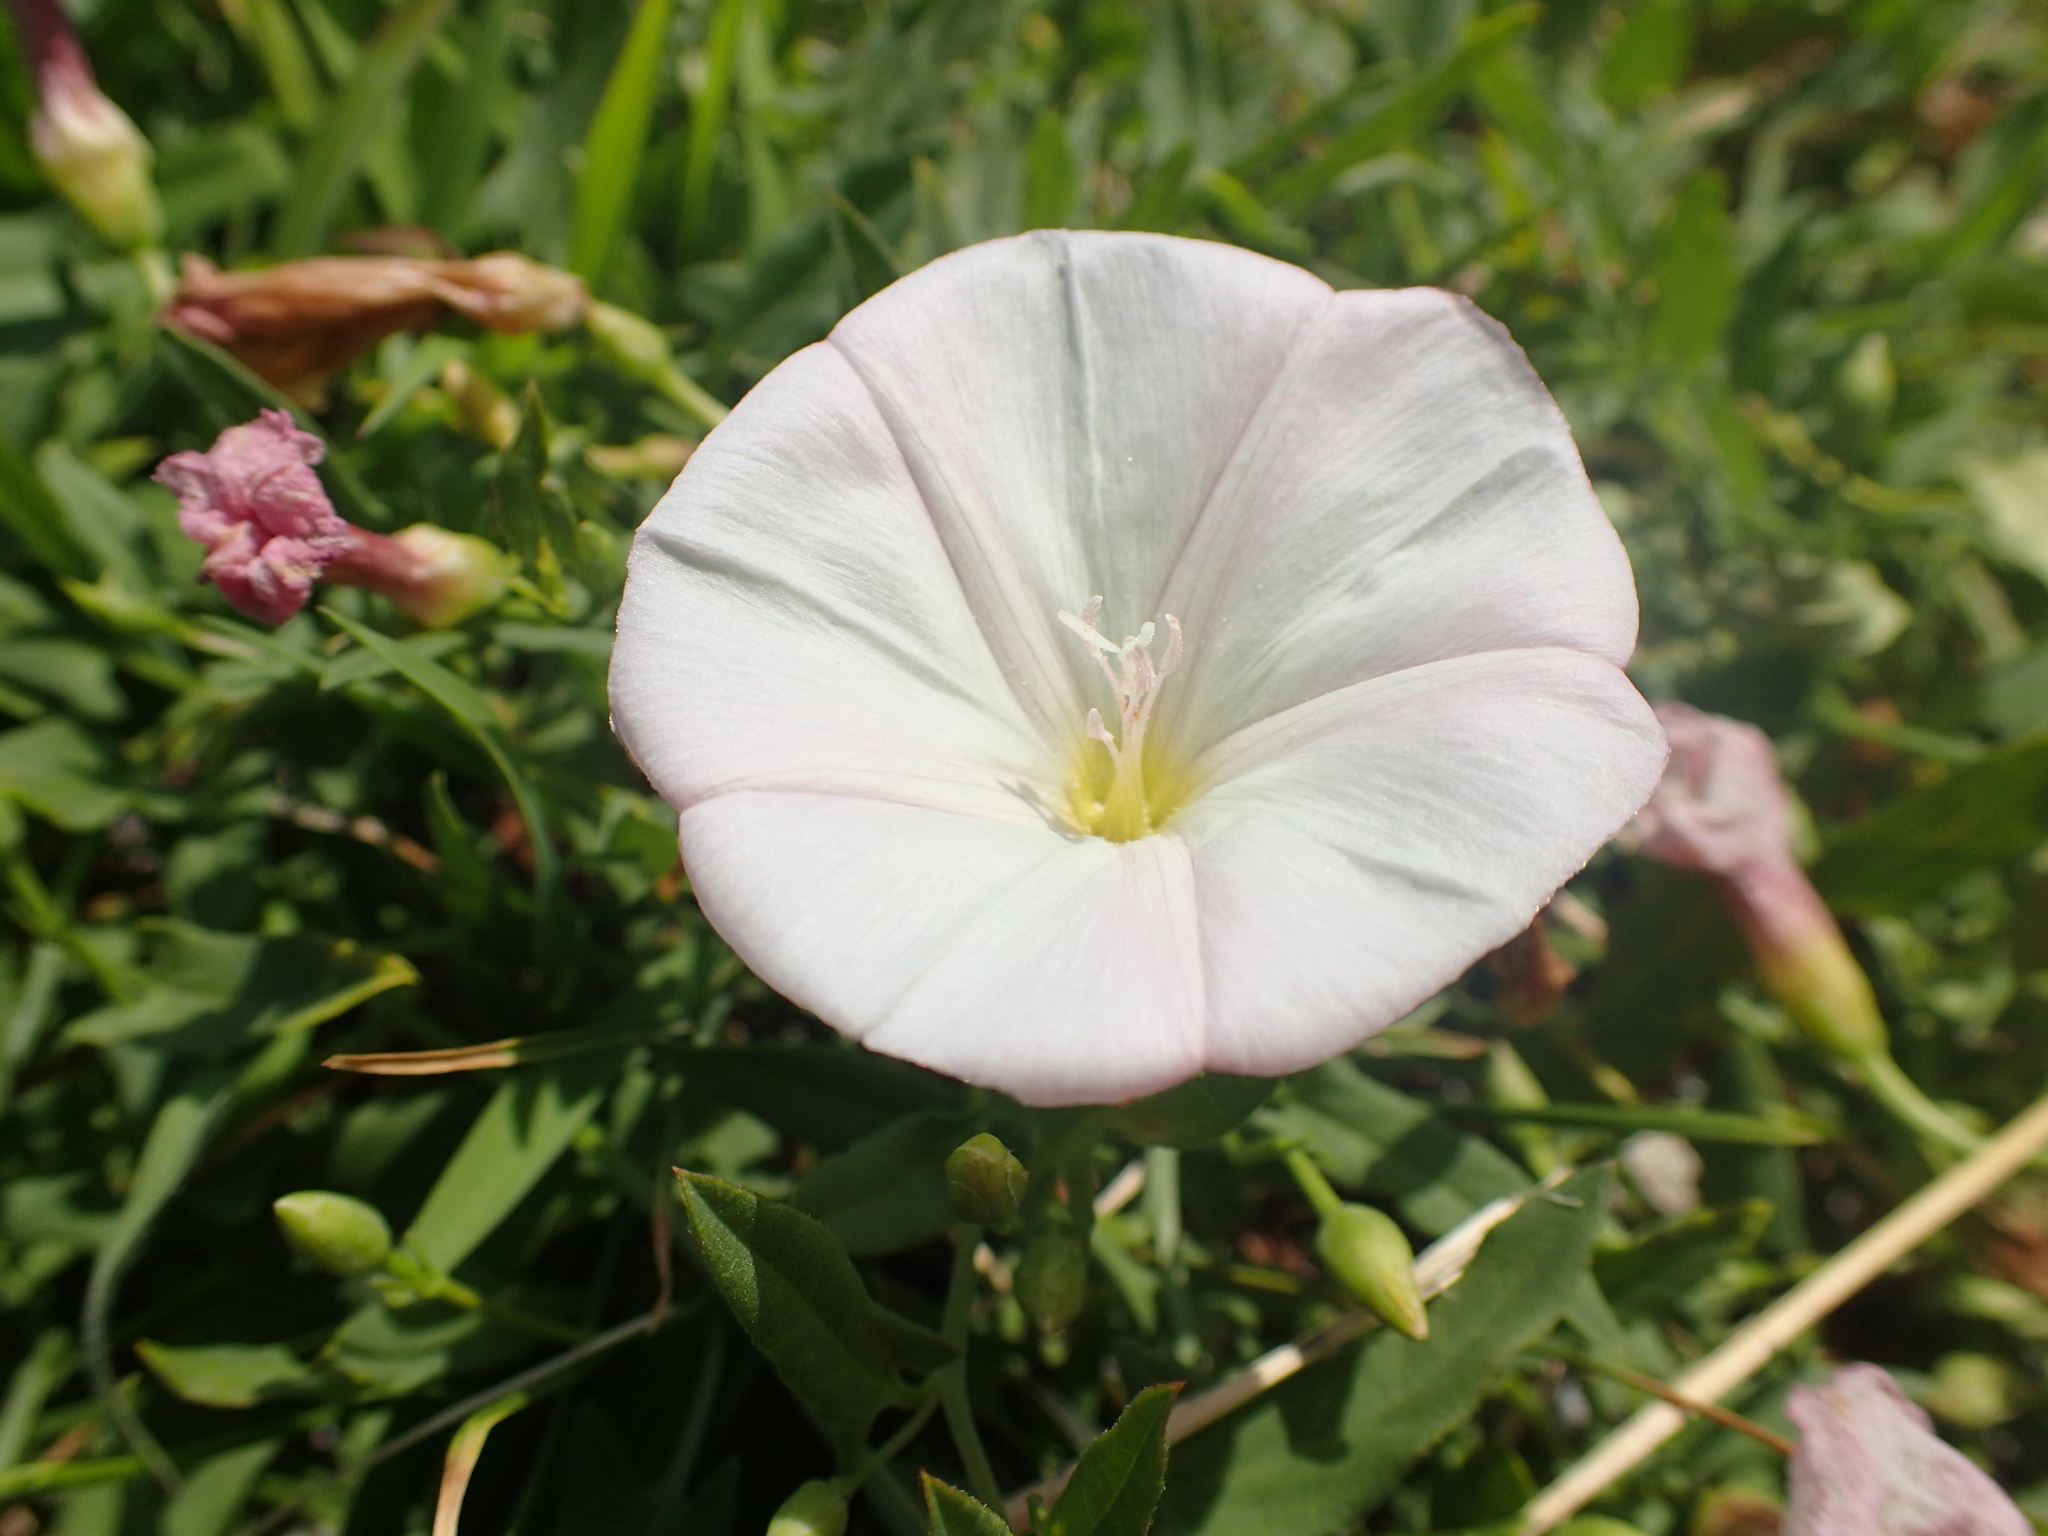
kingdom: Plantae
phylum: Tracheophyta
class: Magnoliopsida
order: Solanales
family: Convolvulaceae
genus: Convolvulus
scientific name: Convolvulus arvensis
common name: Field bindweed
